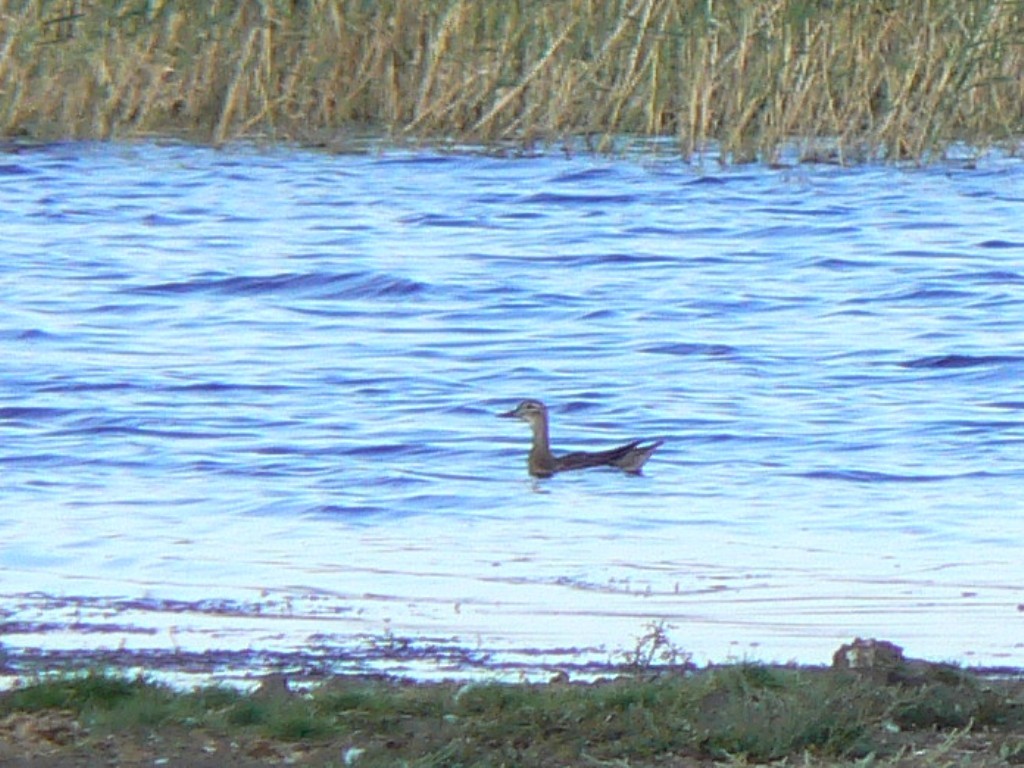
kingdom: Animalia
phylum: Chordata
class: Aves
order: Anseriformes
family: Anatidae
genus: Spatula
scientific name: Spatula querquedula
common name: Garganey
